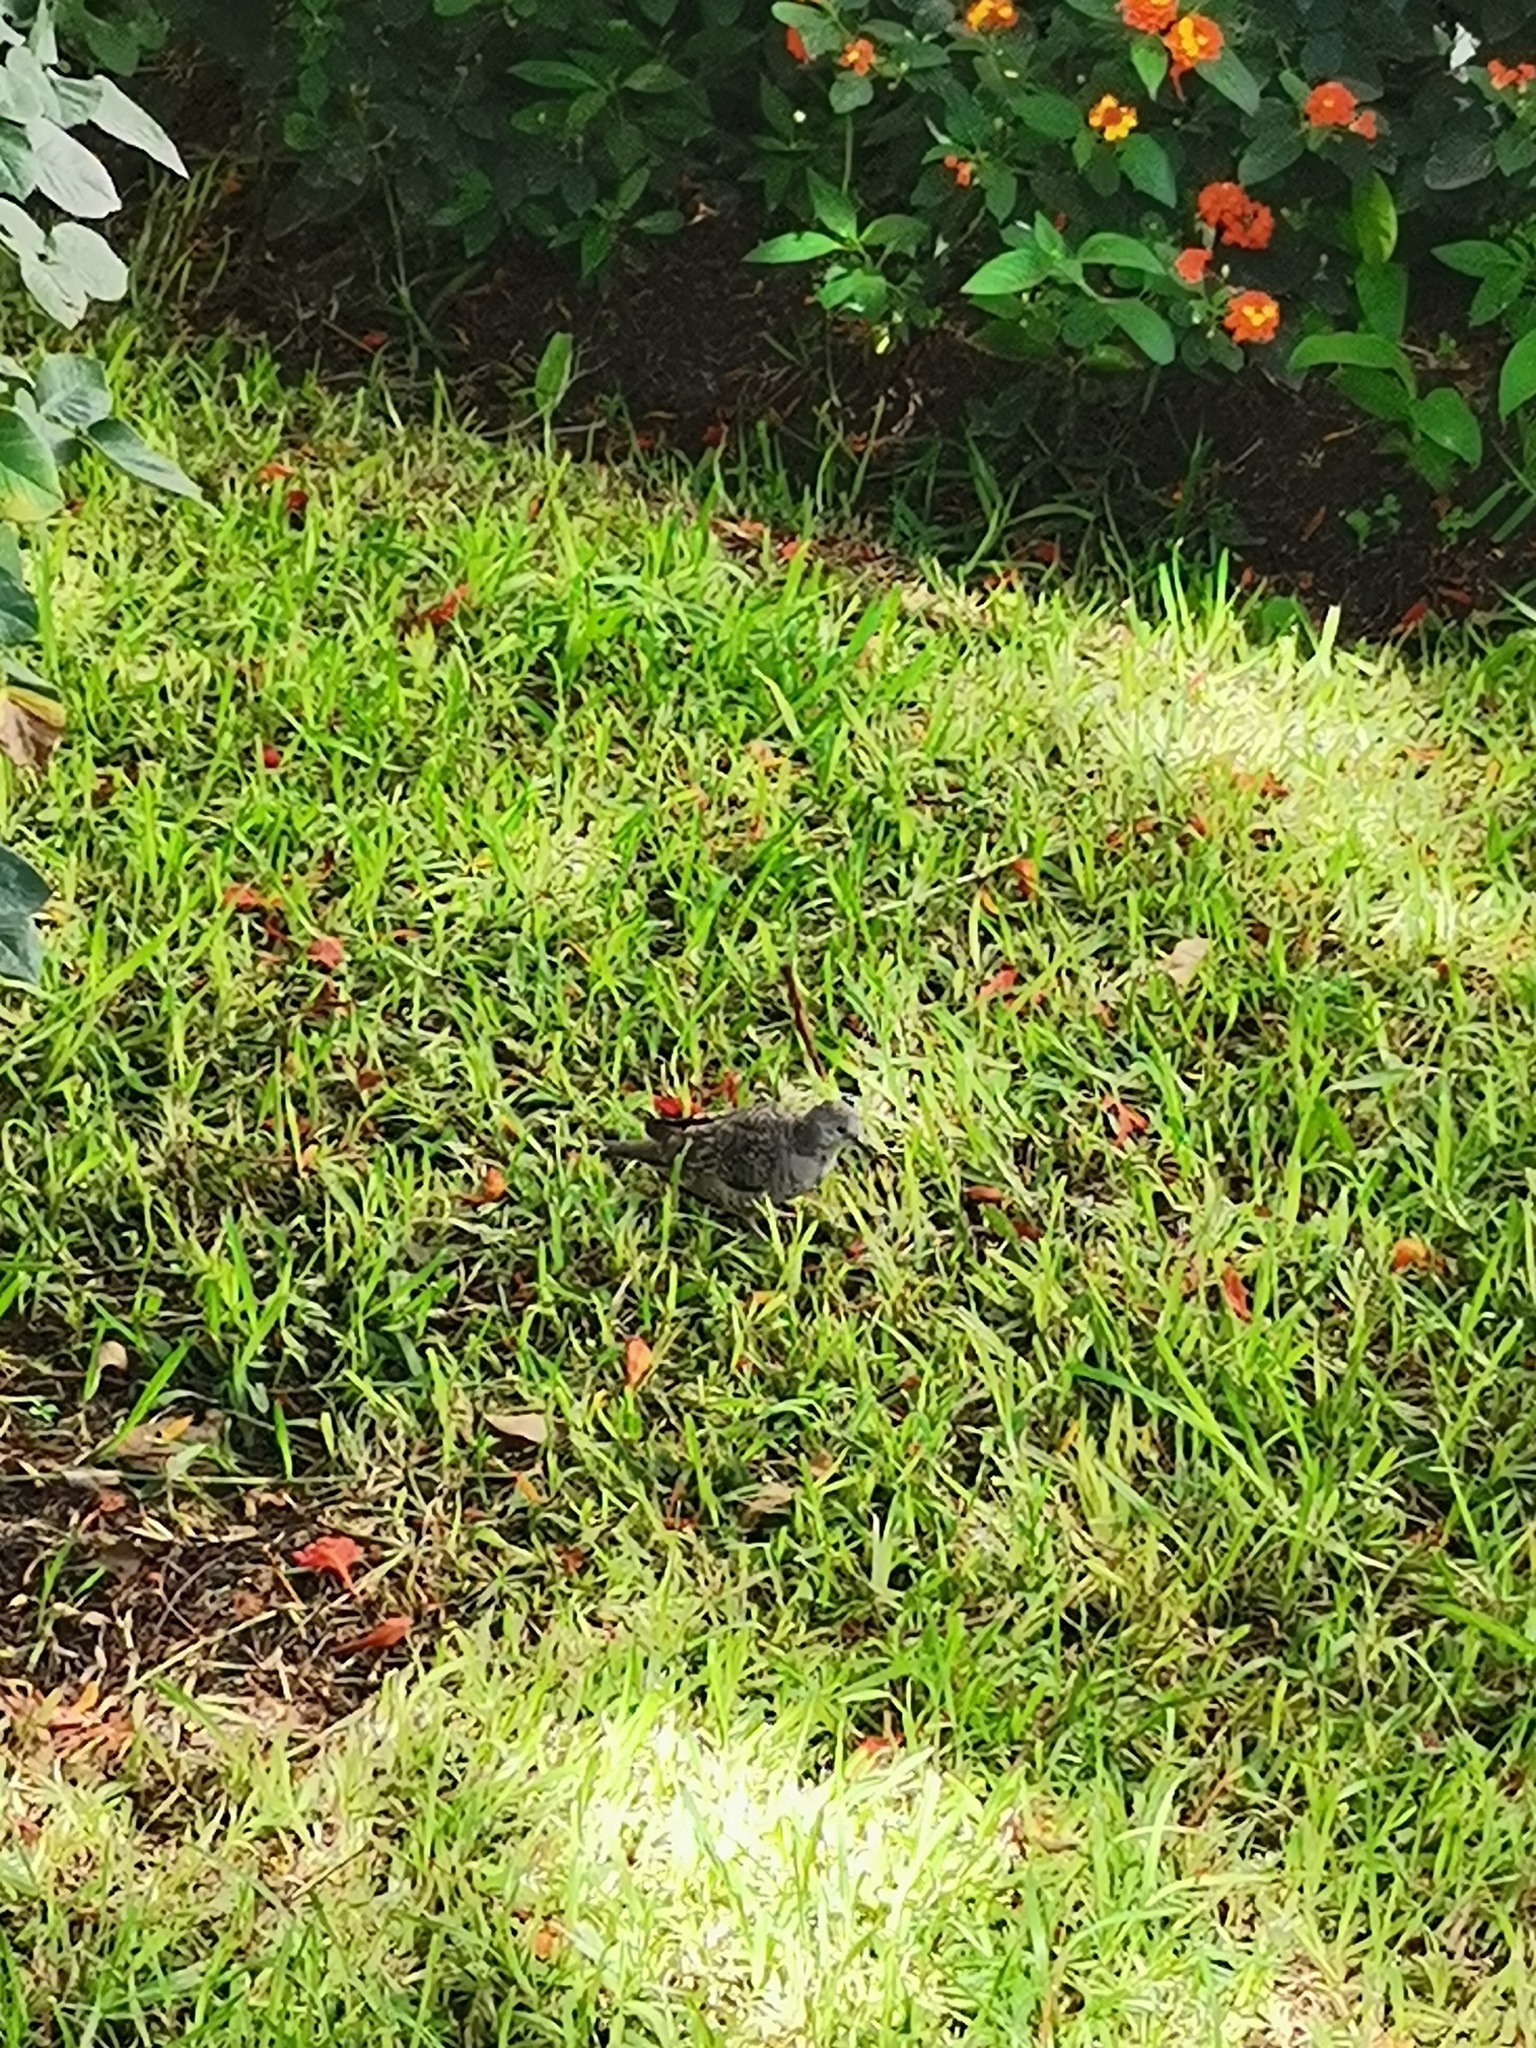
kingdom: Animalia
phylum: Chordata
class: Aves
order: Columbiformes
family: Columbidae
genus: Columbina
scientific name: Columbina inca
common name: Inca dove
